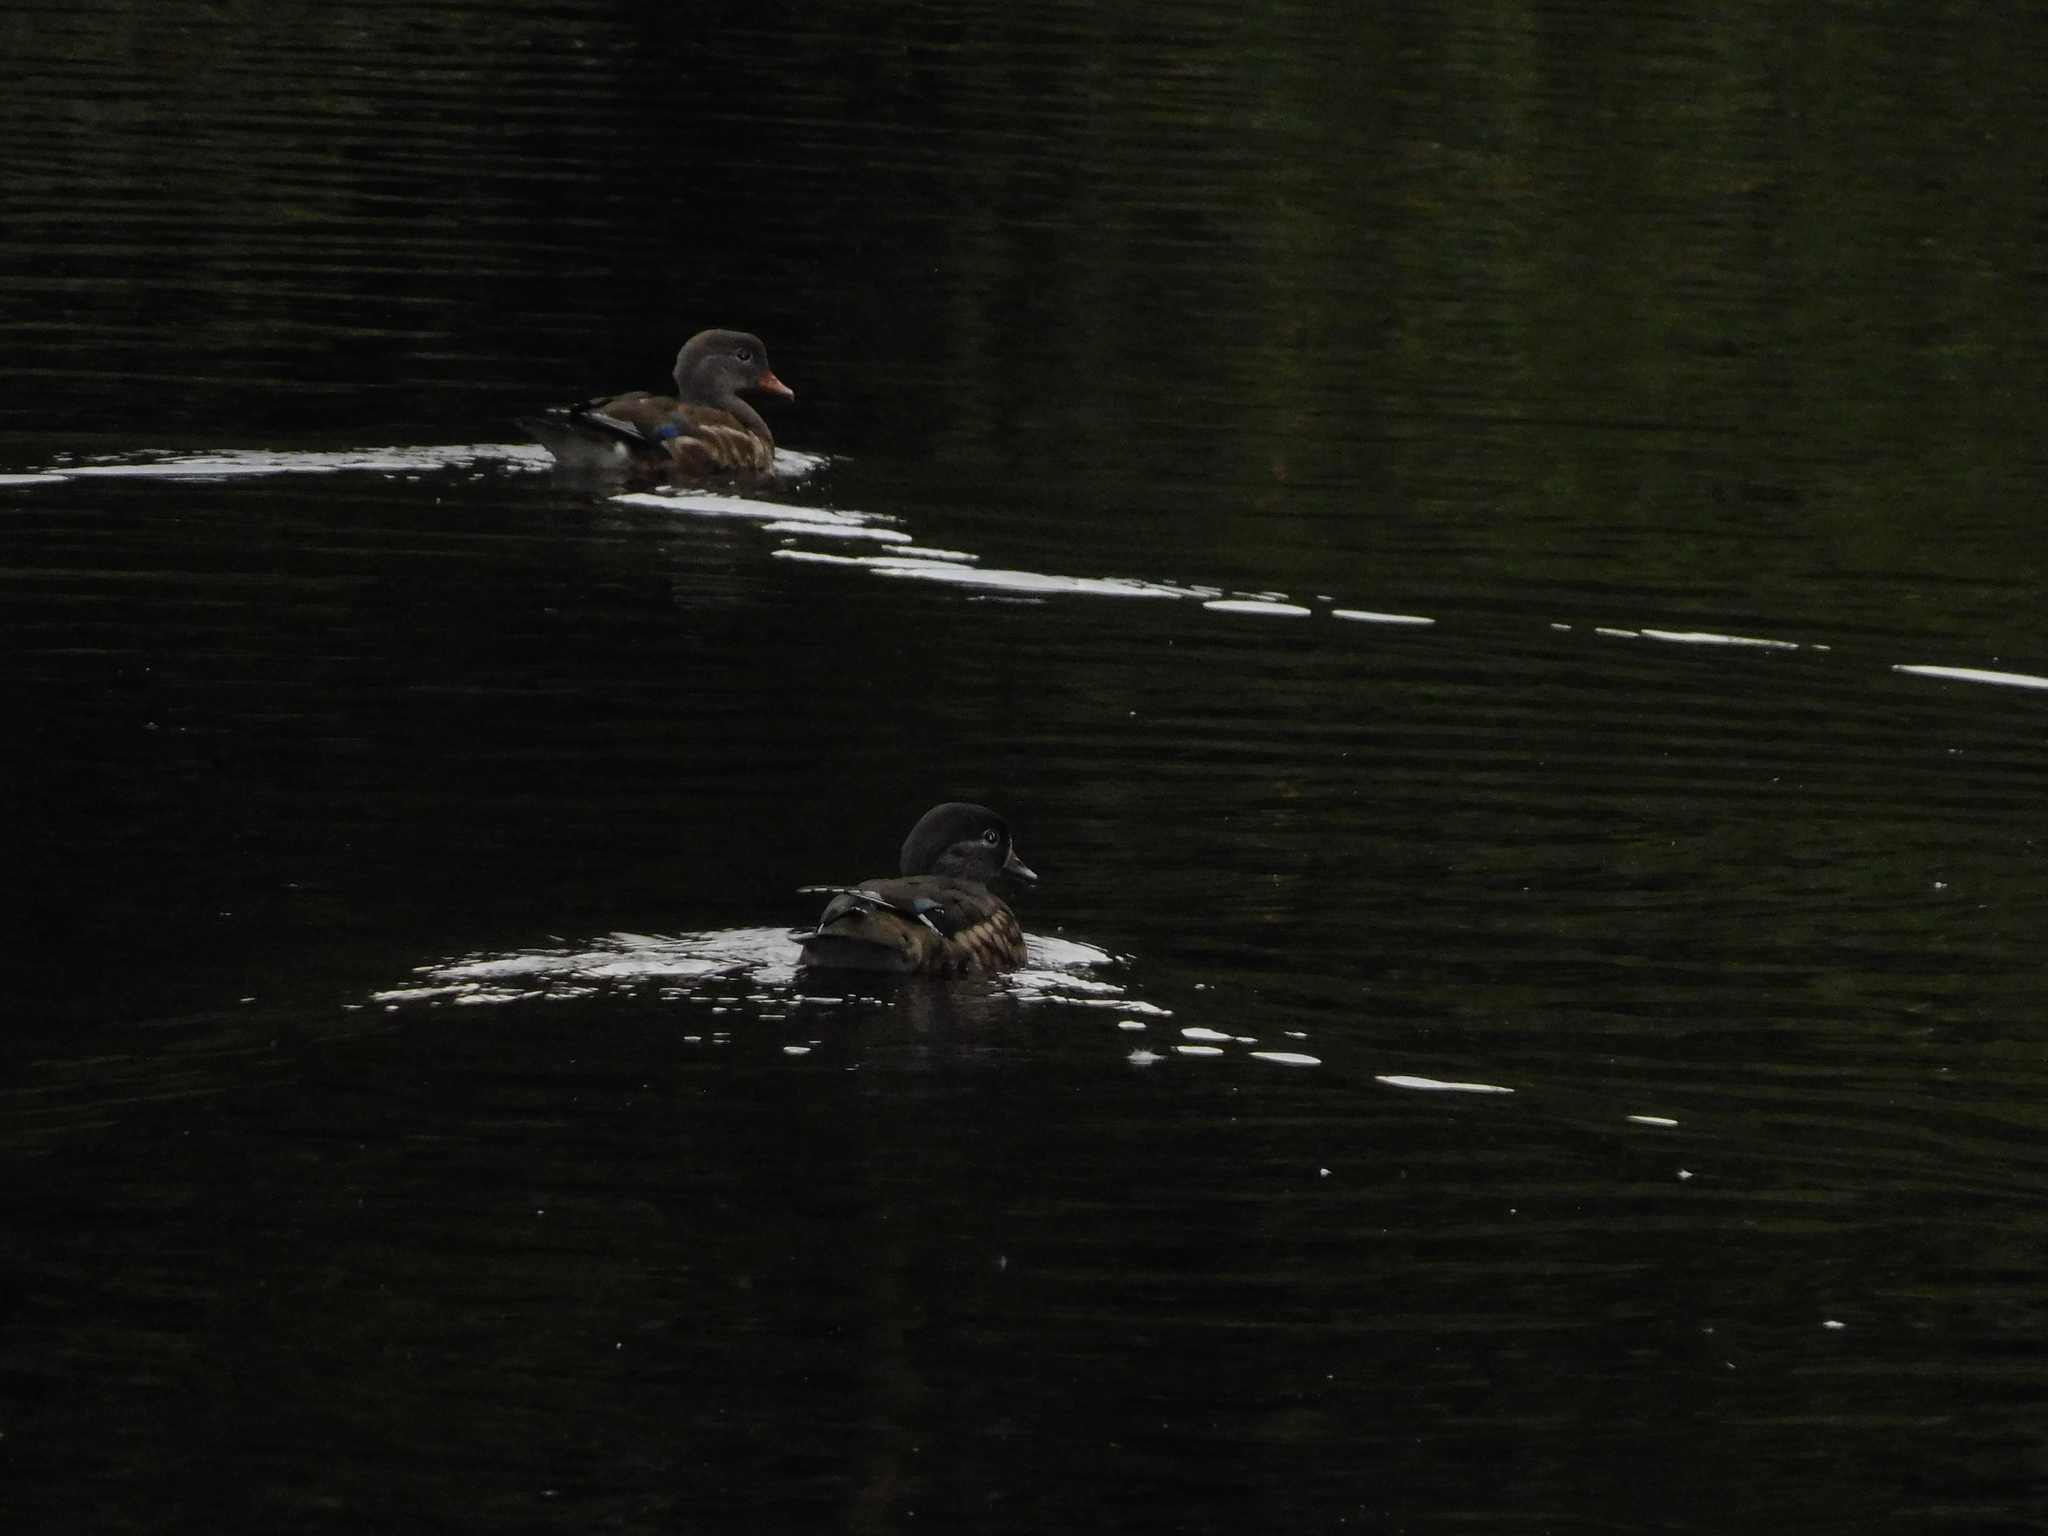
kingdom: Animalia
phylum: Chordata
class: Aves
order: Anseriformes
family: Anatidae
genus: Aix
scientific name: Aix galericulata
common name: Mandarin duck
